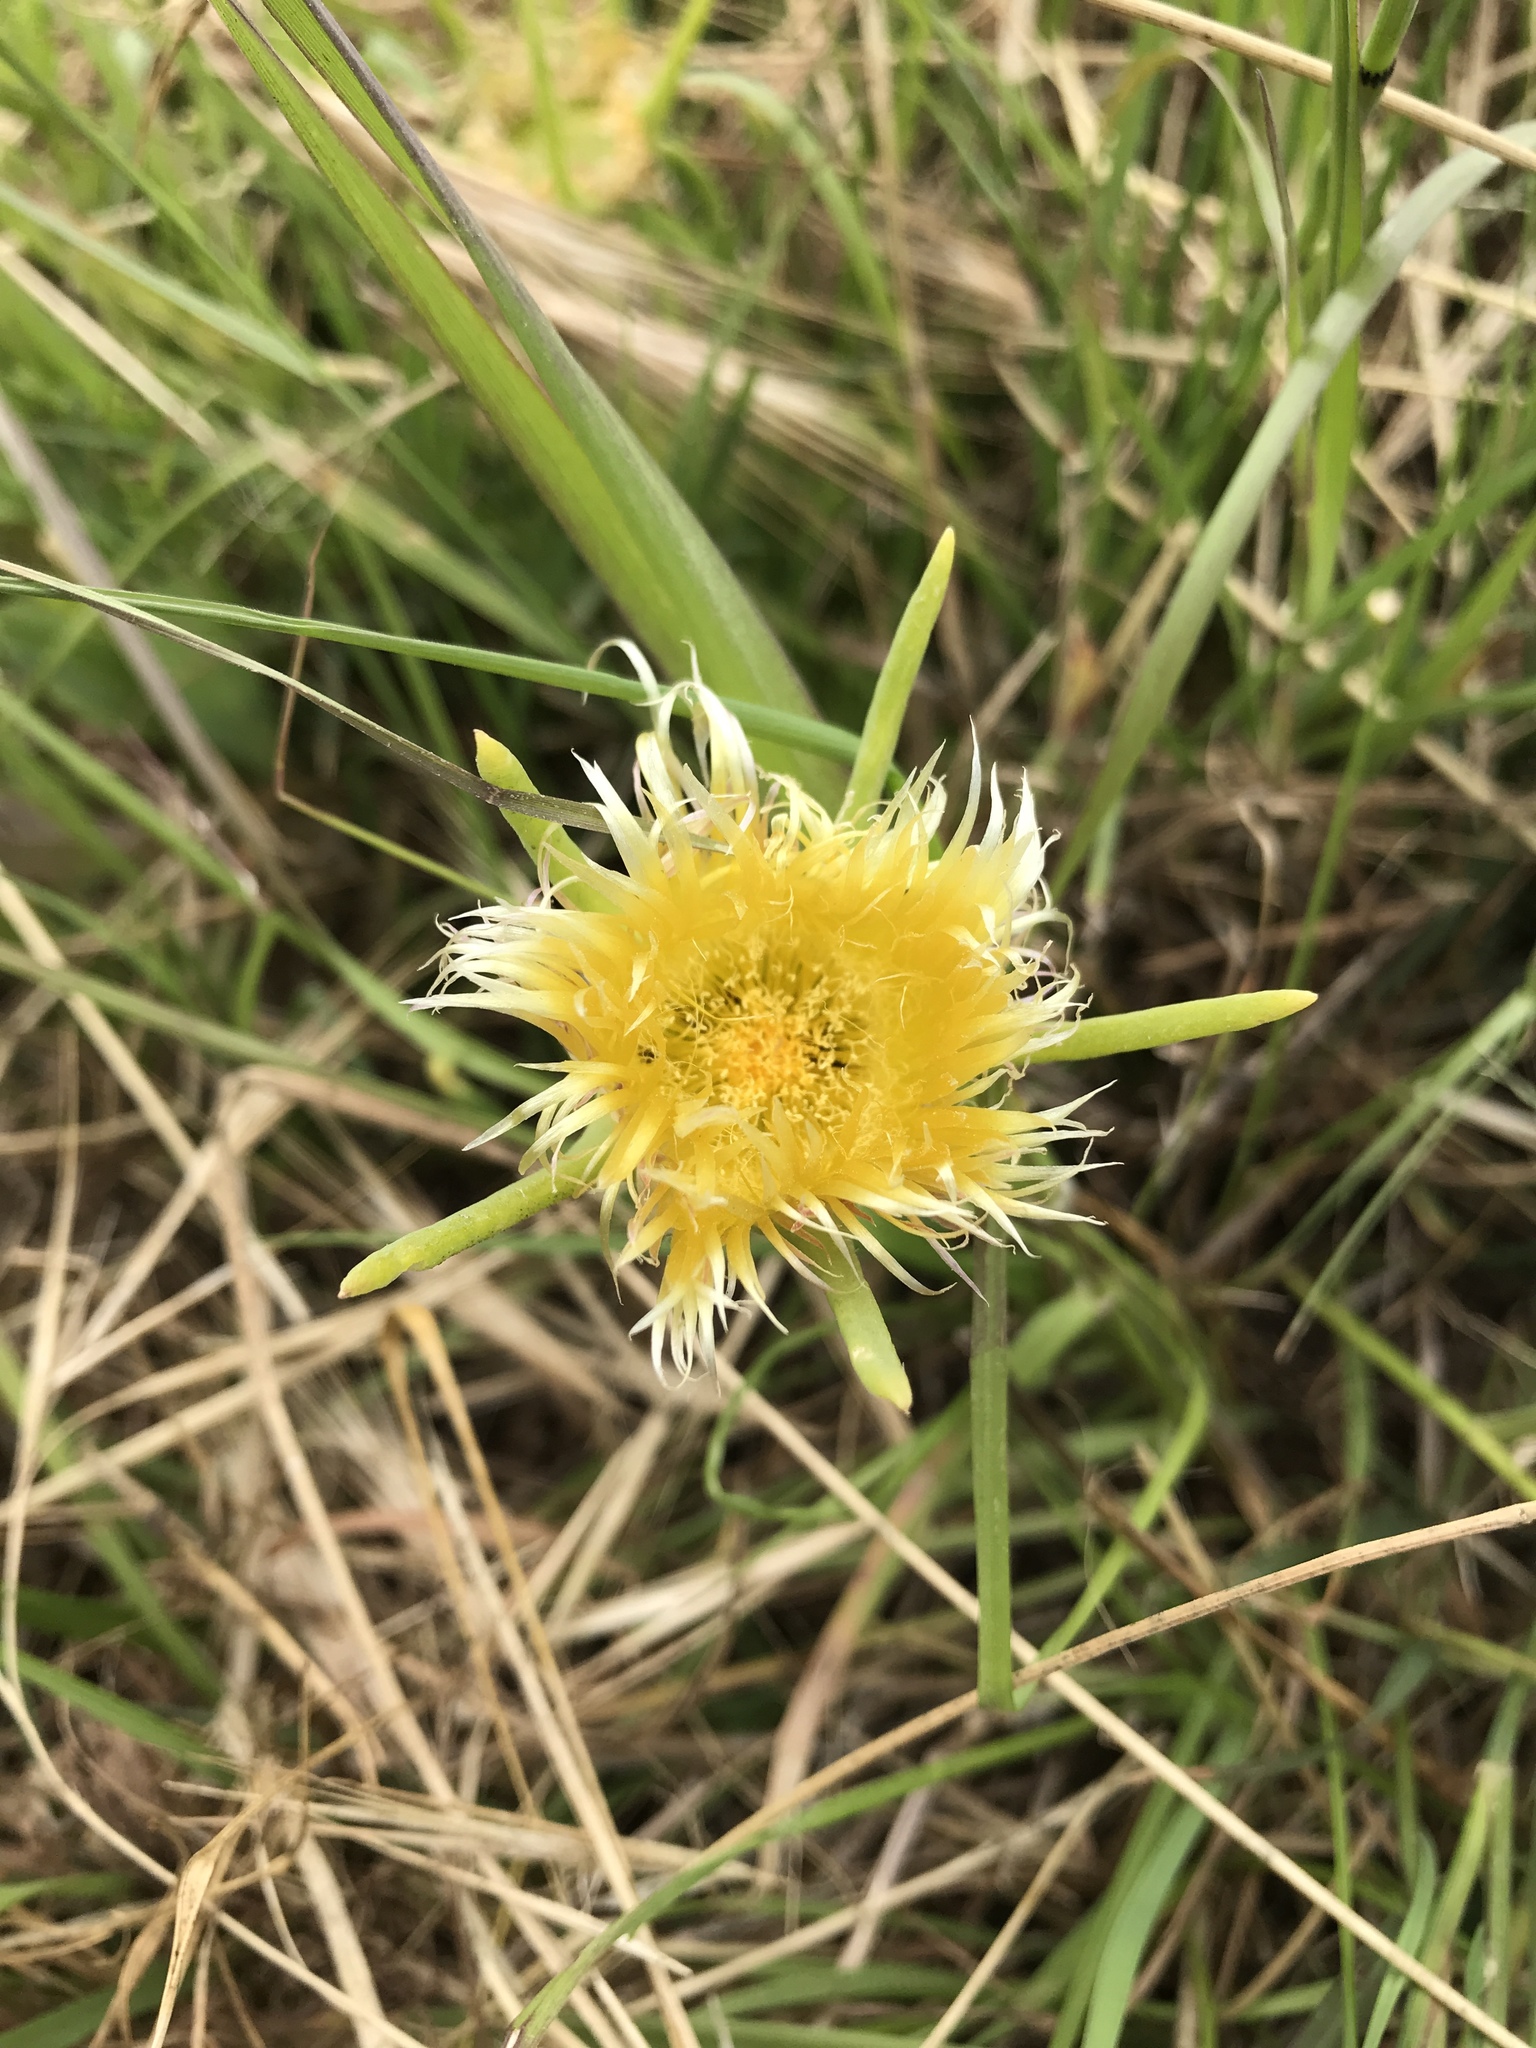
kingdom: Plantae
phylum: Tracheophyta
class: Magnoliopsida
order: Caryophyllales
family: Aizoaceae
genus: Conicosia
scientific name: Conicosia pugioniformis
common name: Narrow-leaved iceplant
